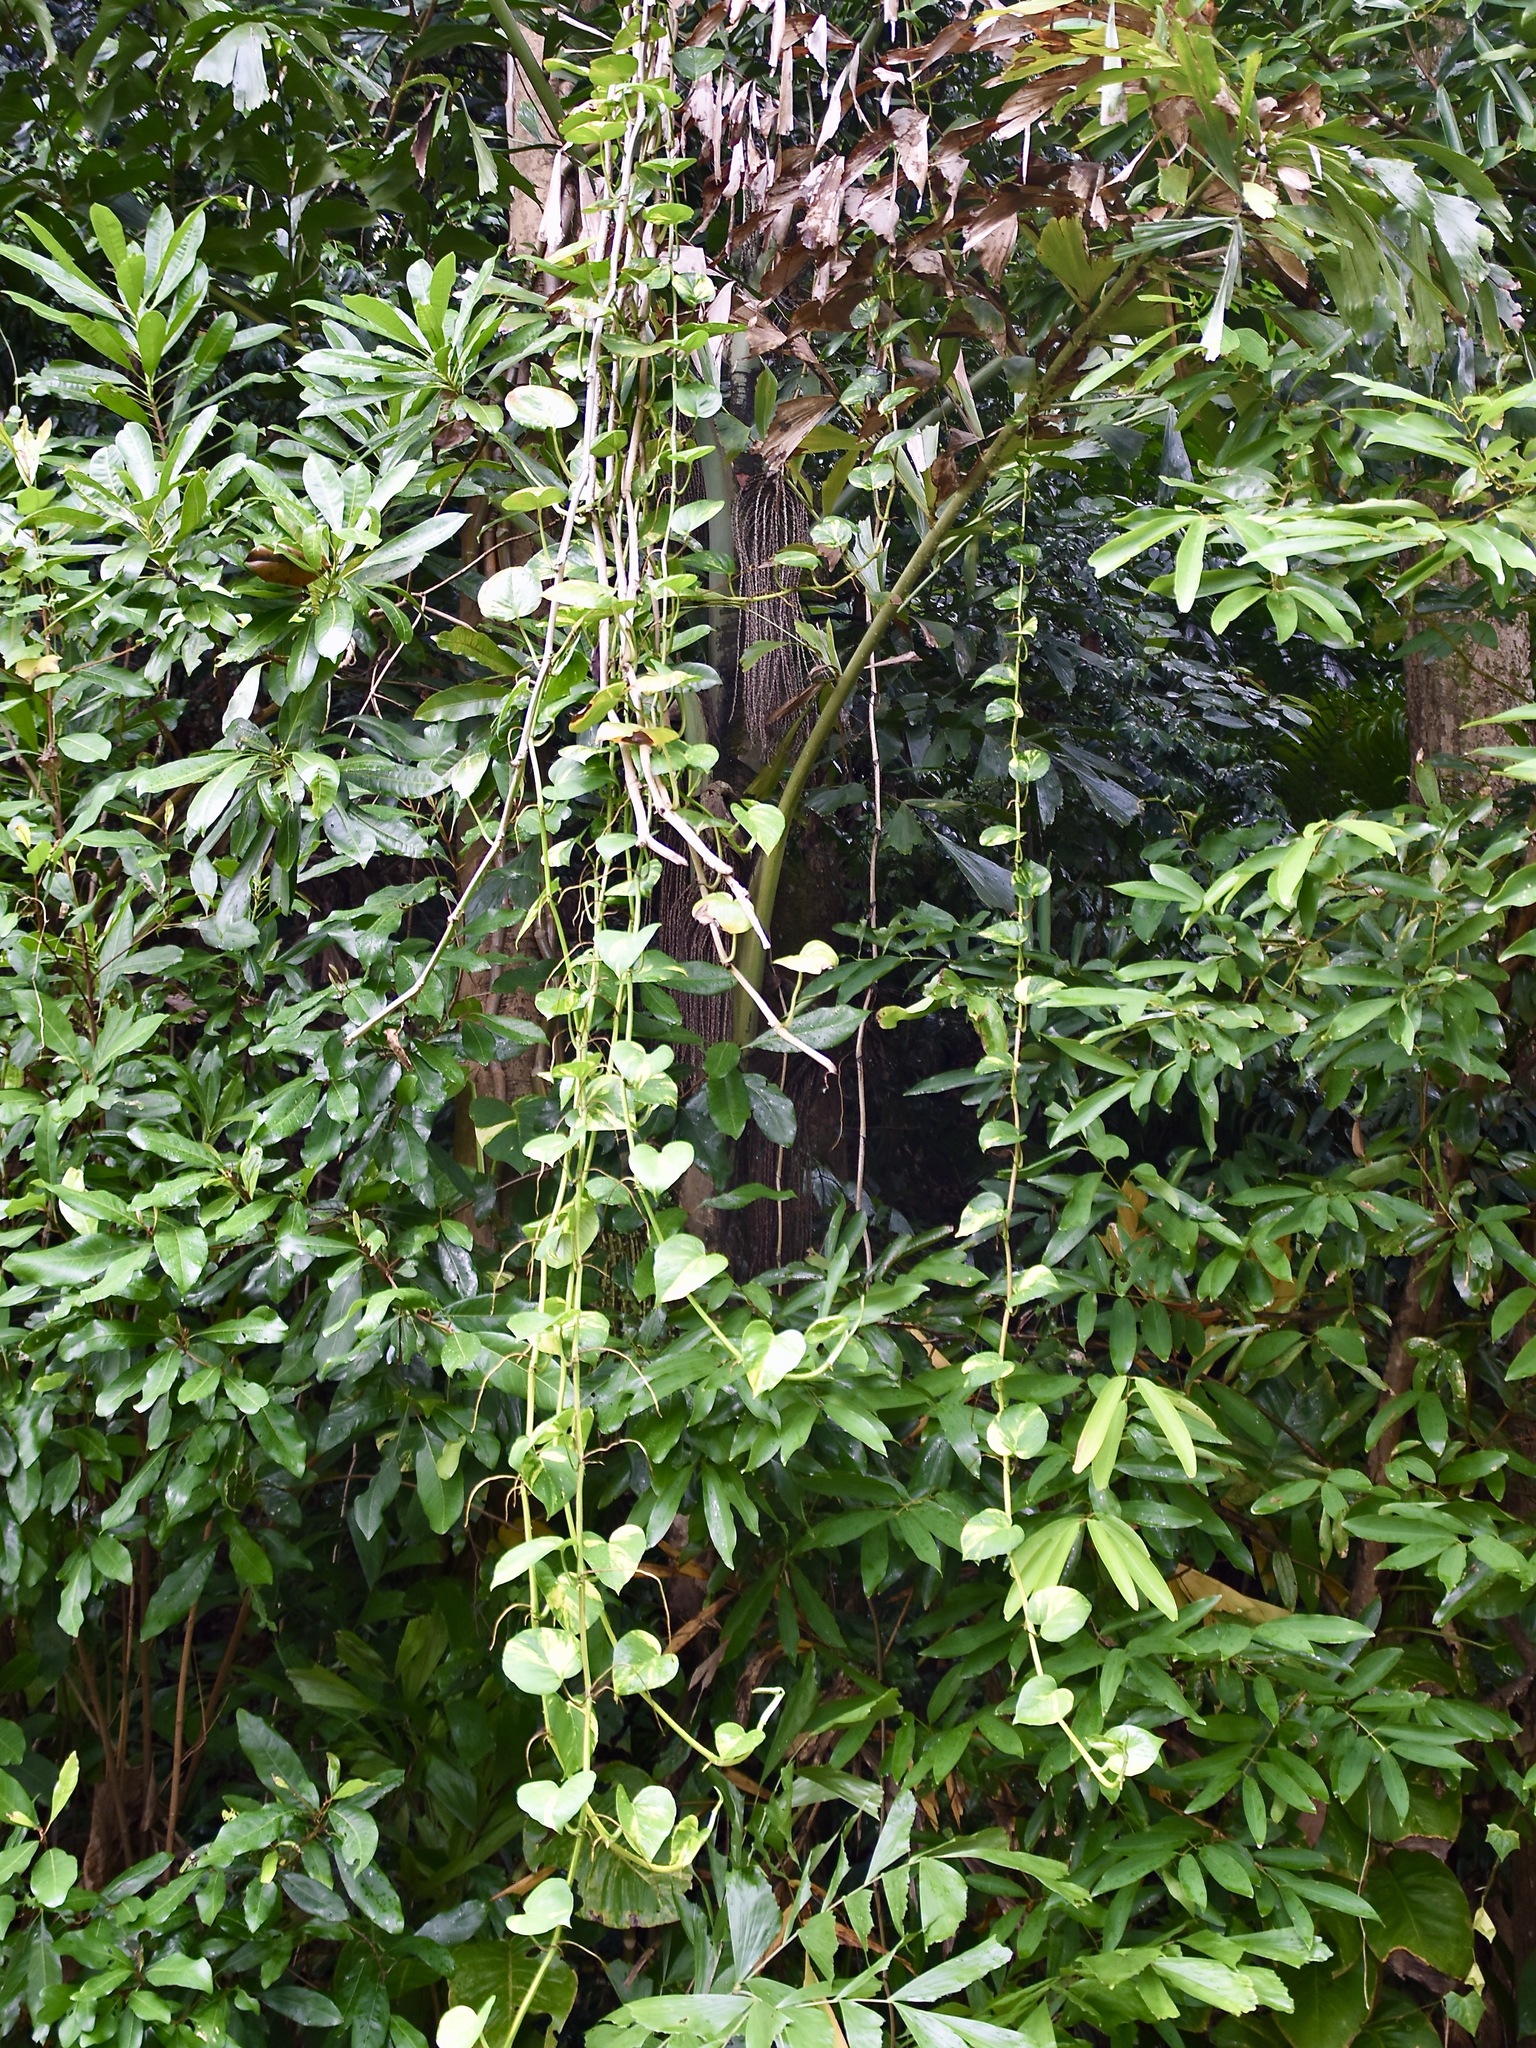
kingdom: Plantae
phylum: Tracheophyta
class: Liliopsida
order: Alismatales
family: Araceae
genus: Epipremnum
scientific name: Epipremnum aureum
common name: Golden hunter's-robe
